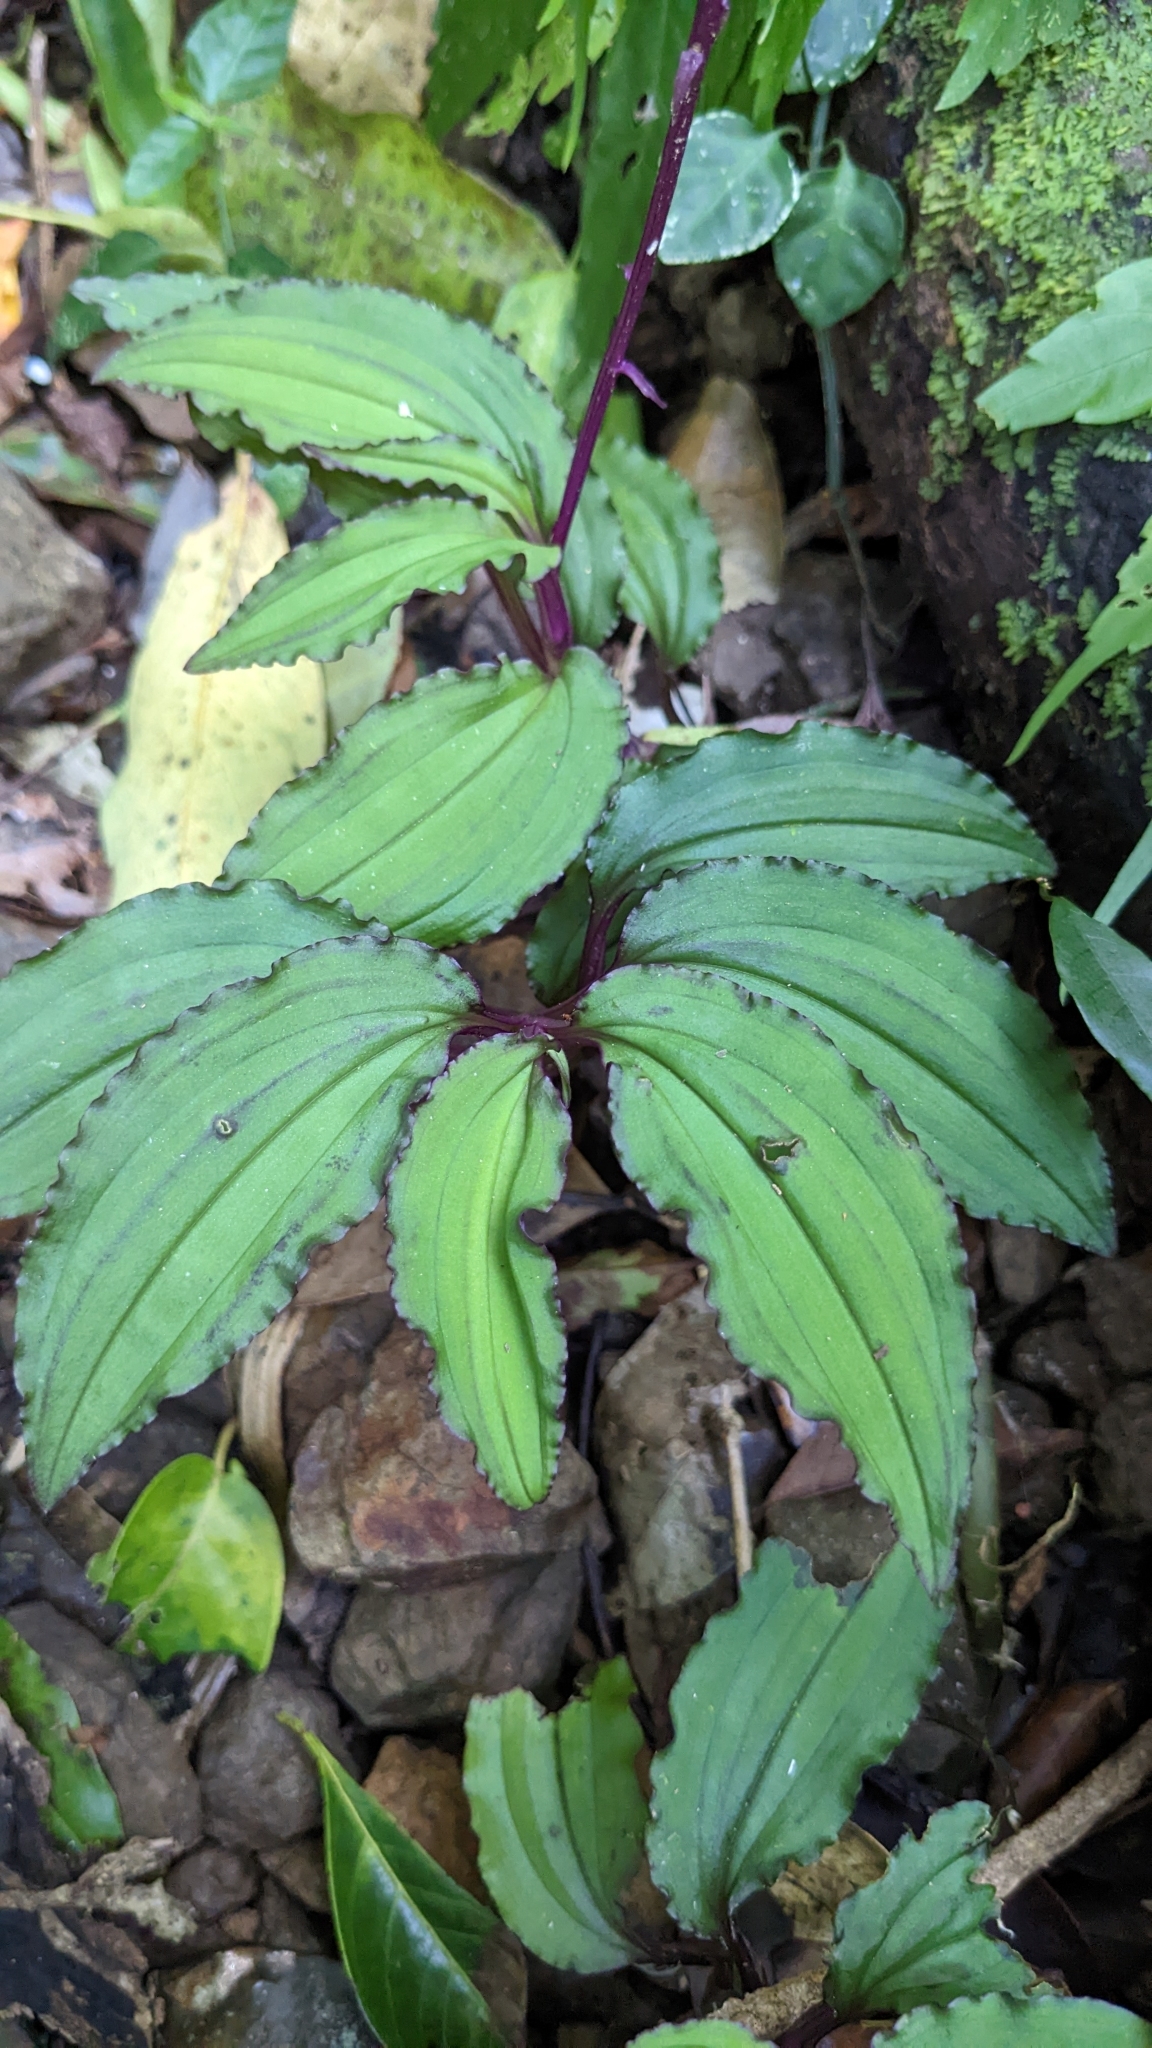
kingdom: Plantae
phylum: Tracheophyta
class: Liliopsida
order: Asparagales
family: Orchidaceae
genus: Crepidium
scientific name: Crepidium roohutuensis
